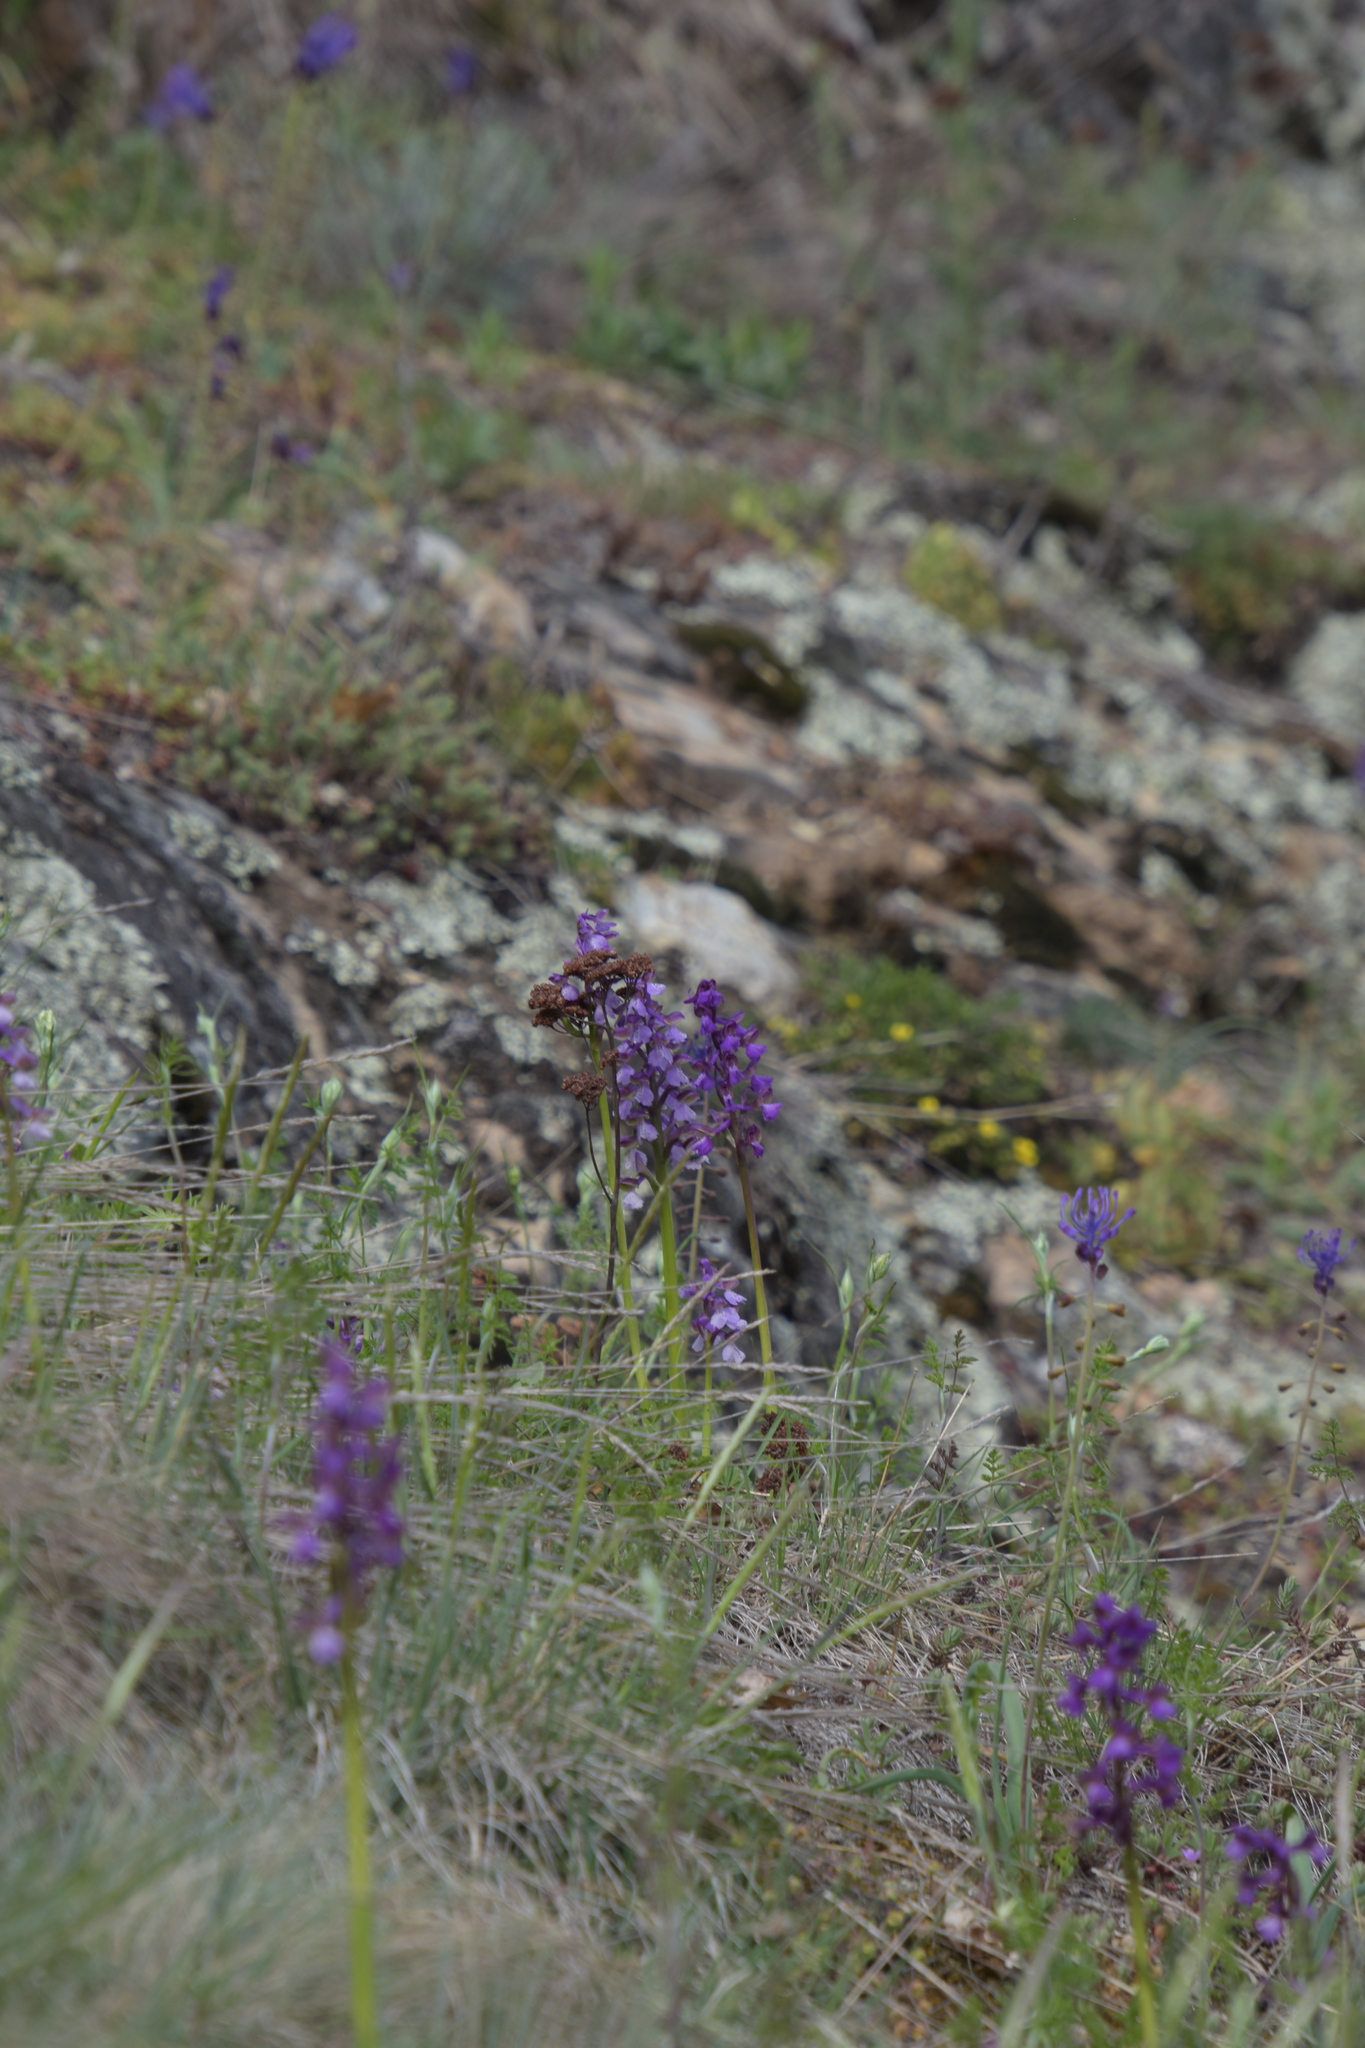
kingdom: Plantae
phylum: Tracheophyta
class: Liliopsida
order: Asparagales
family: Orchidaceae
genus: Anacamptis
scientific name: Anacamptis morio
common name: Green-winged orchid
